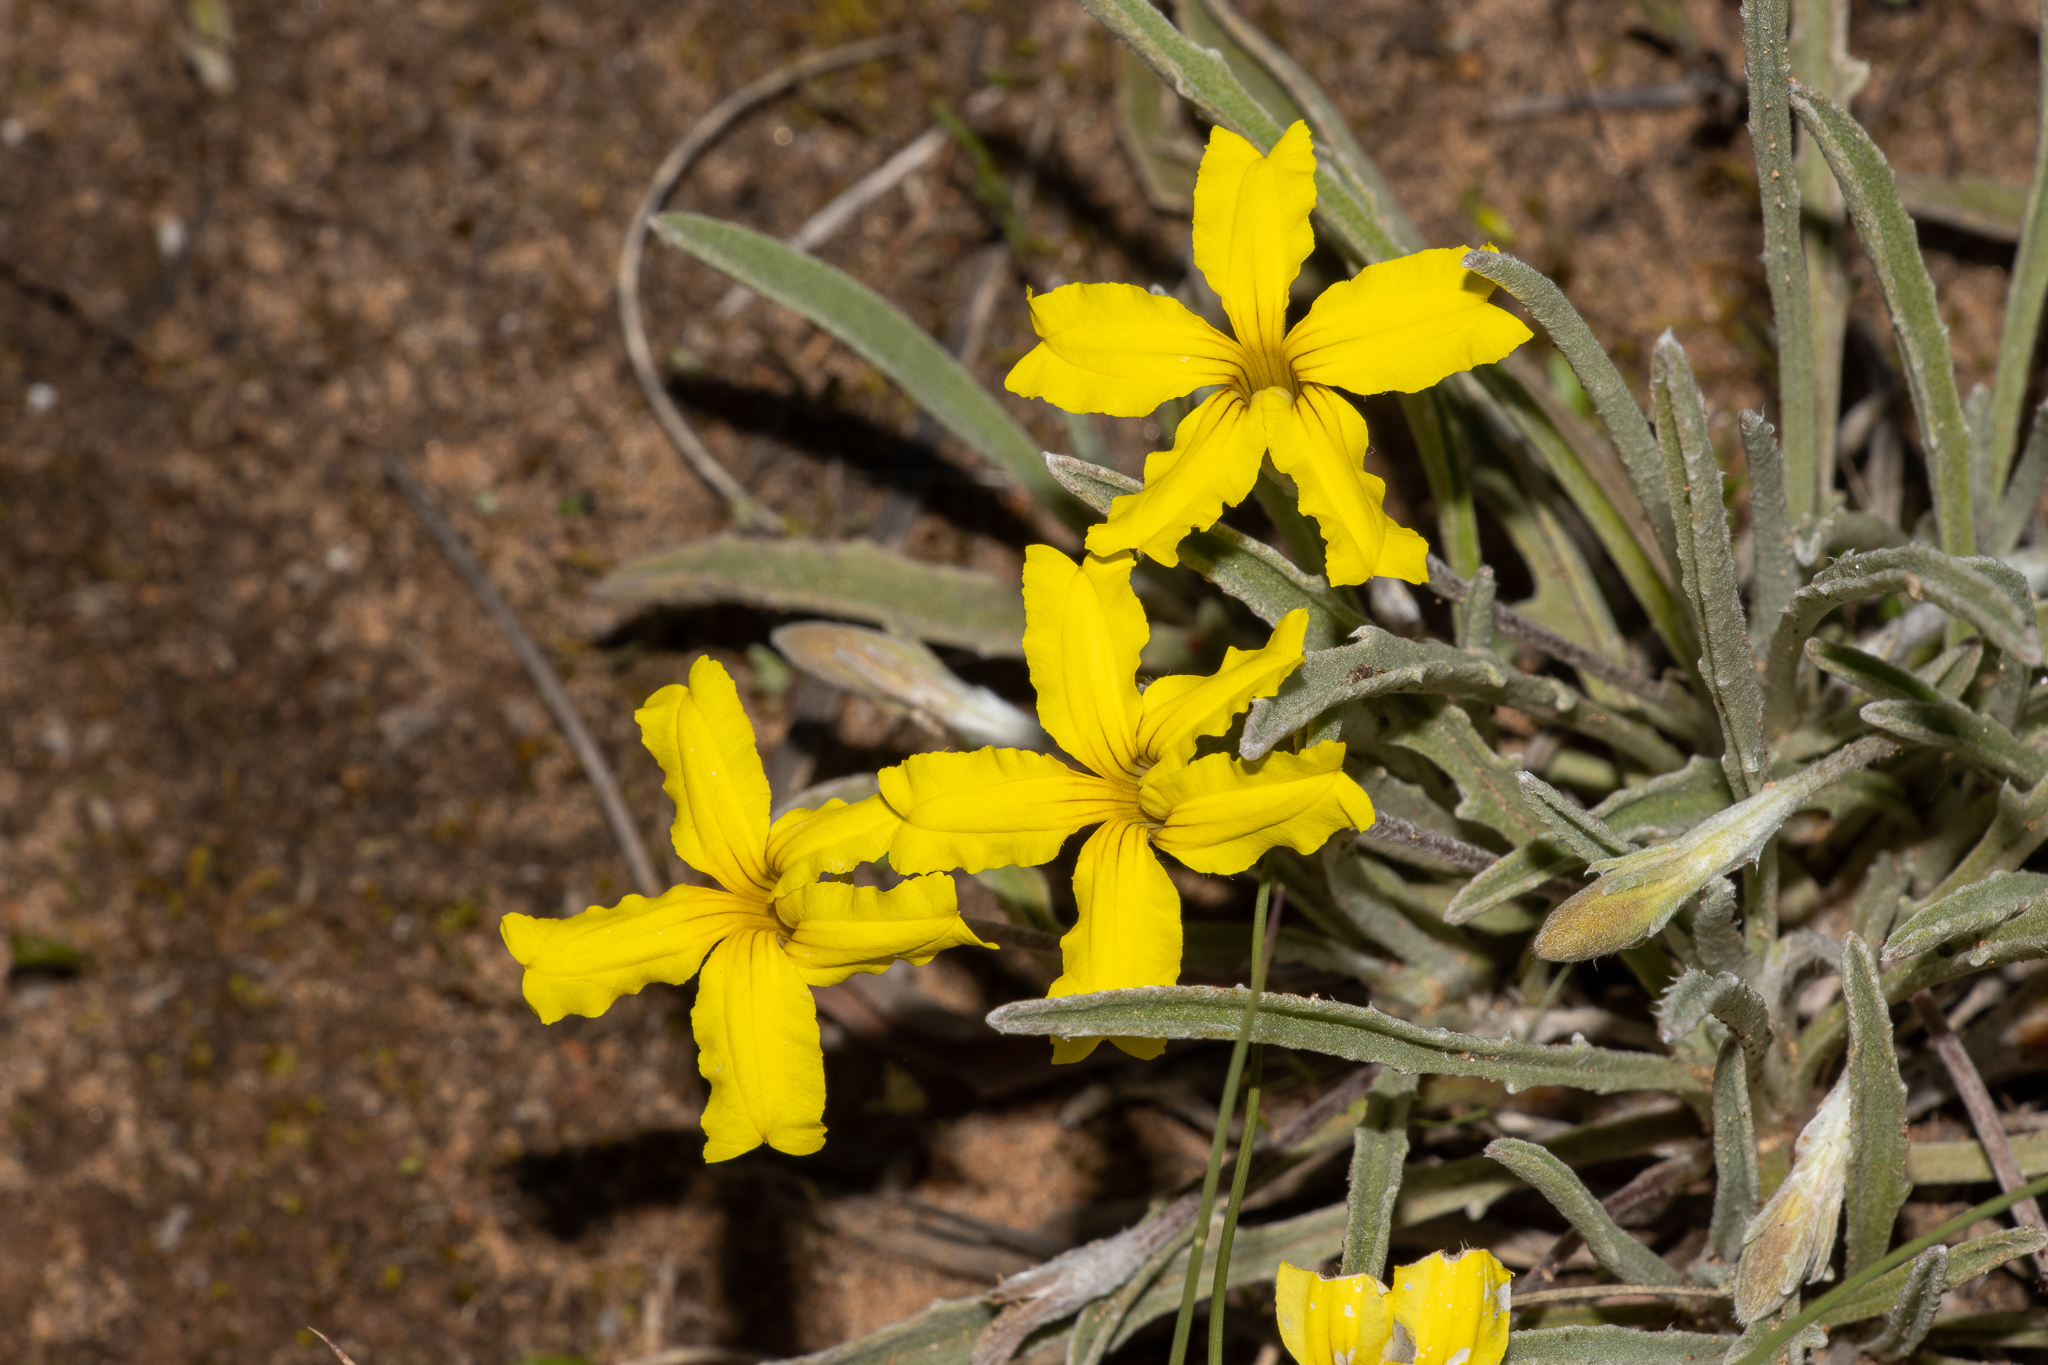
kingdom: Plantae
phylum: Tracheophyta
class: Magnoliopsida
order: Asterales
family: Goodeniaceae
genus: Goodenia
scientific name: Goodenia willisiana
